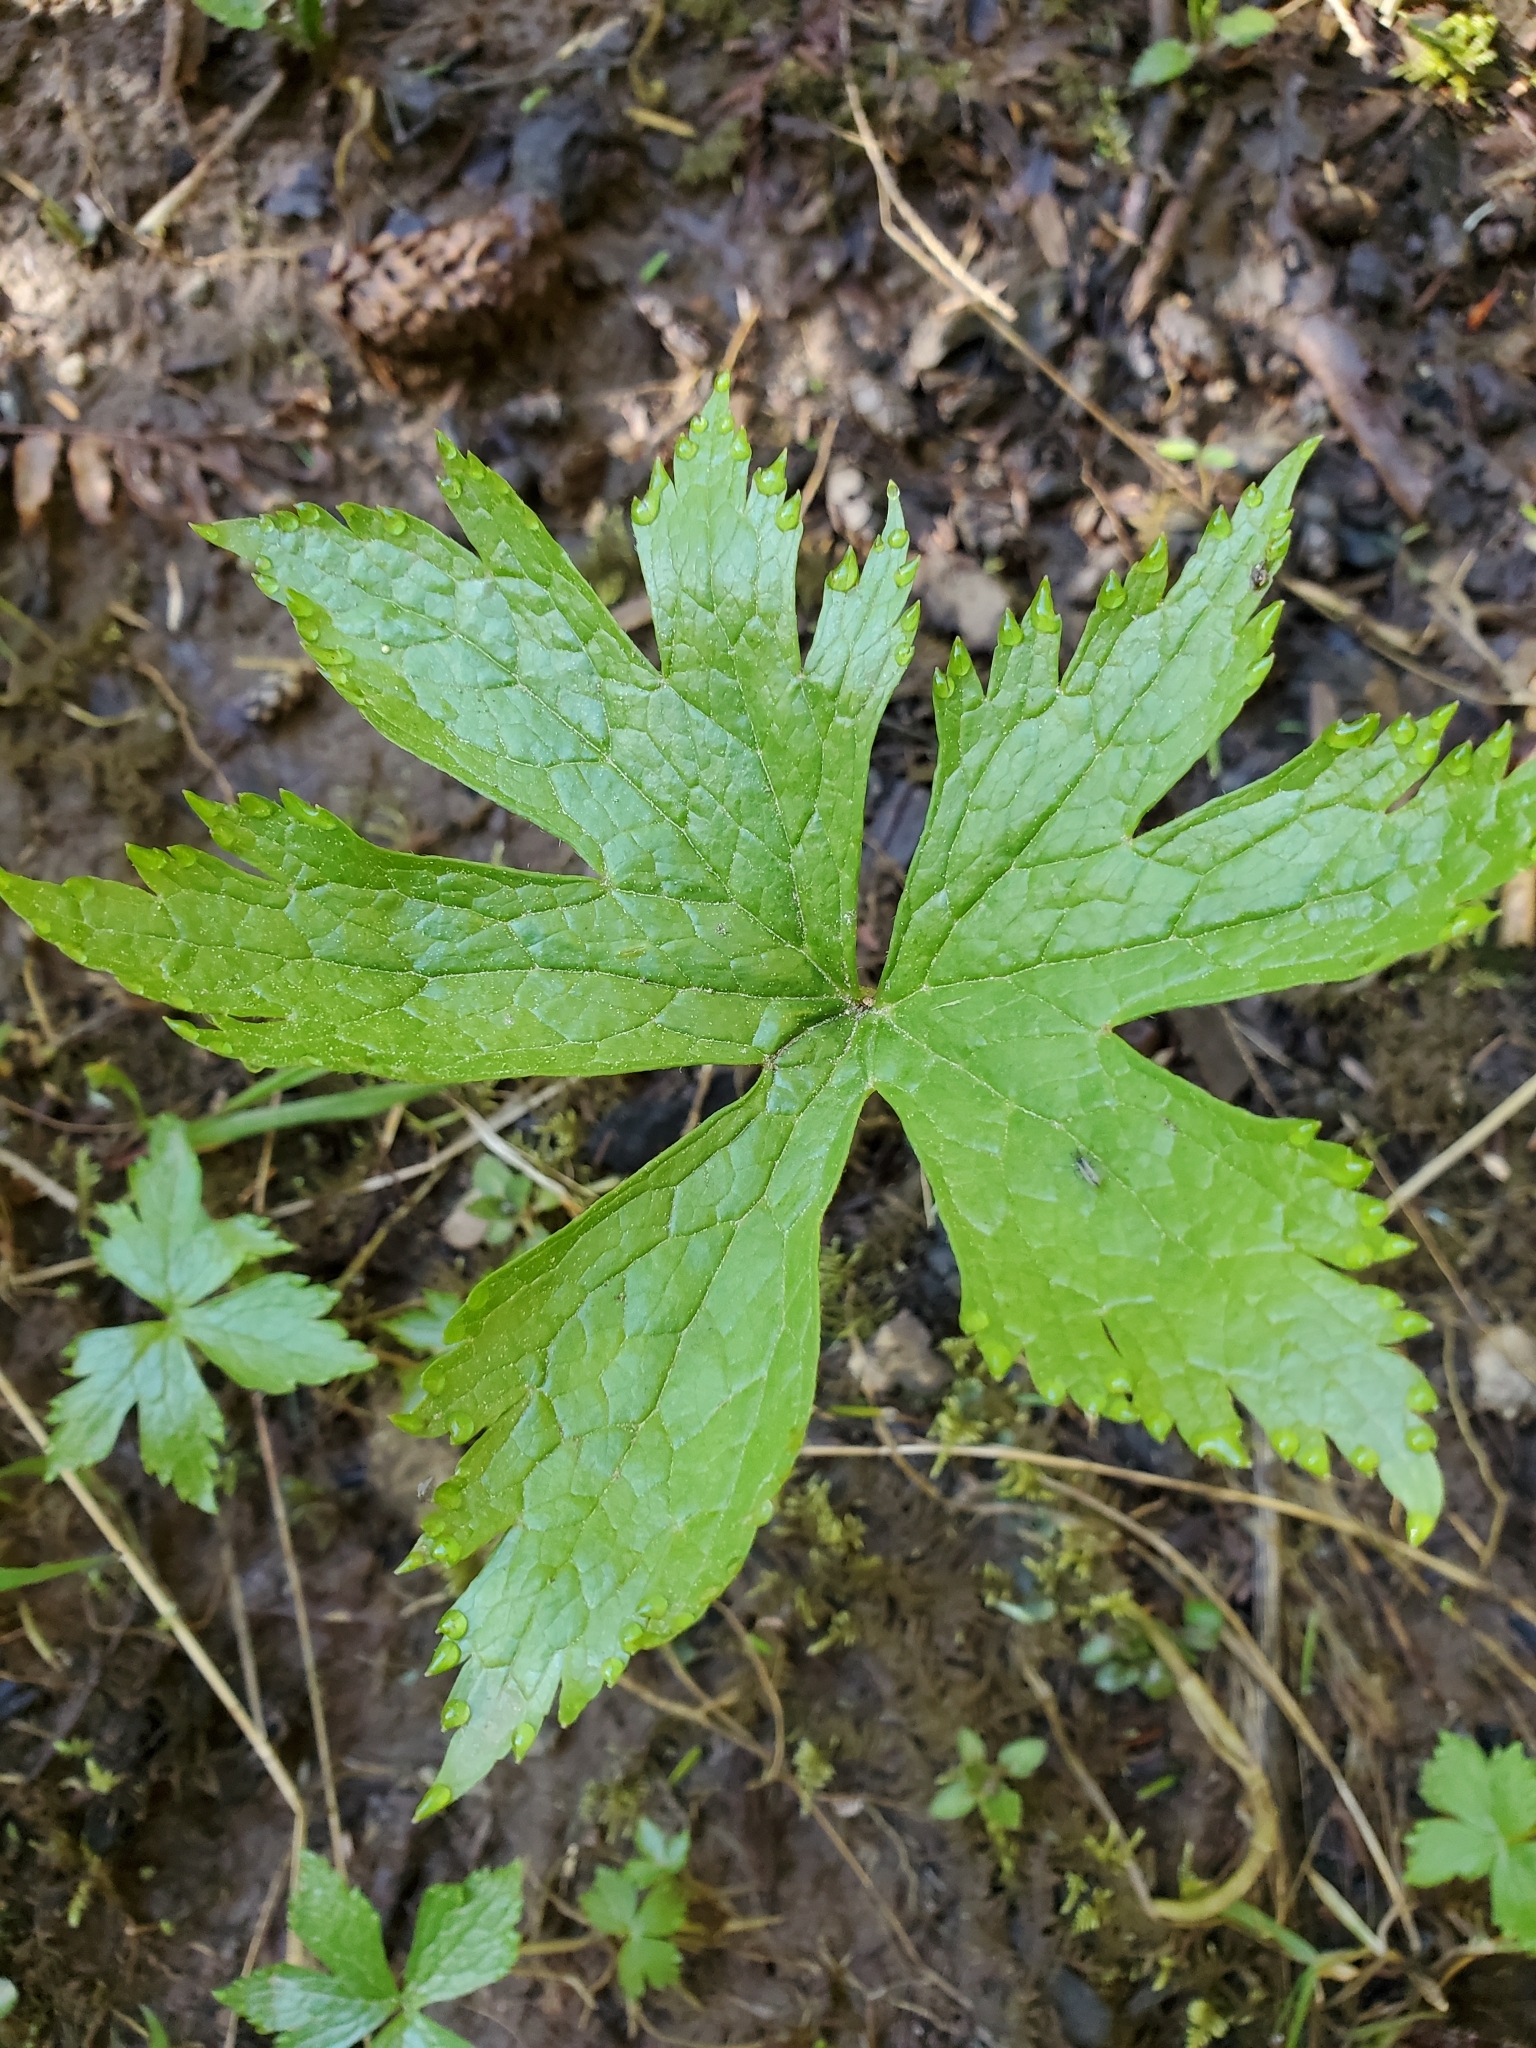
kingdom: Plantae
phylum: Tracheophyta
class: Magnoliopsida
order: Ranunculales
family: Ranunculaceae
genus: Trautvetteria
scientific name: Trautvetteria carolinensis
